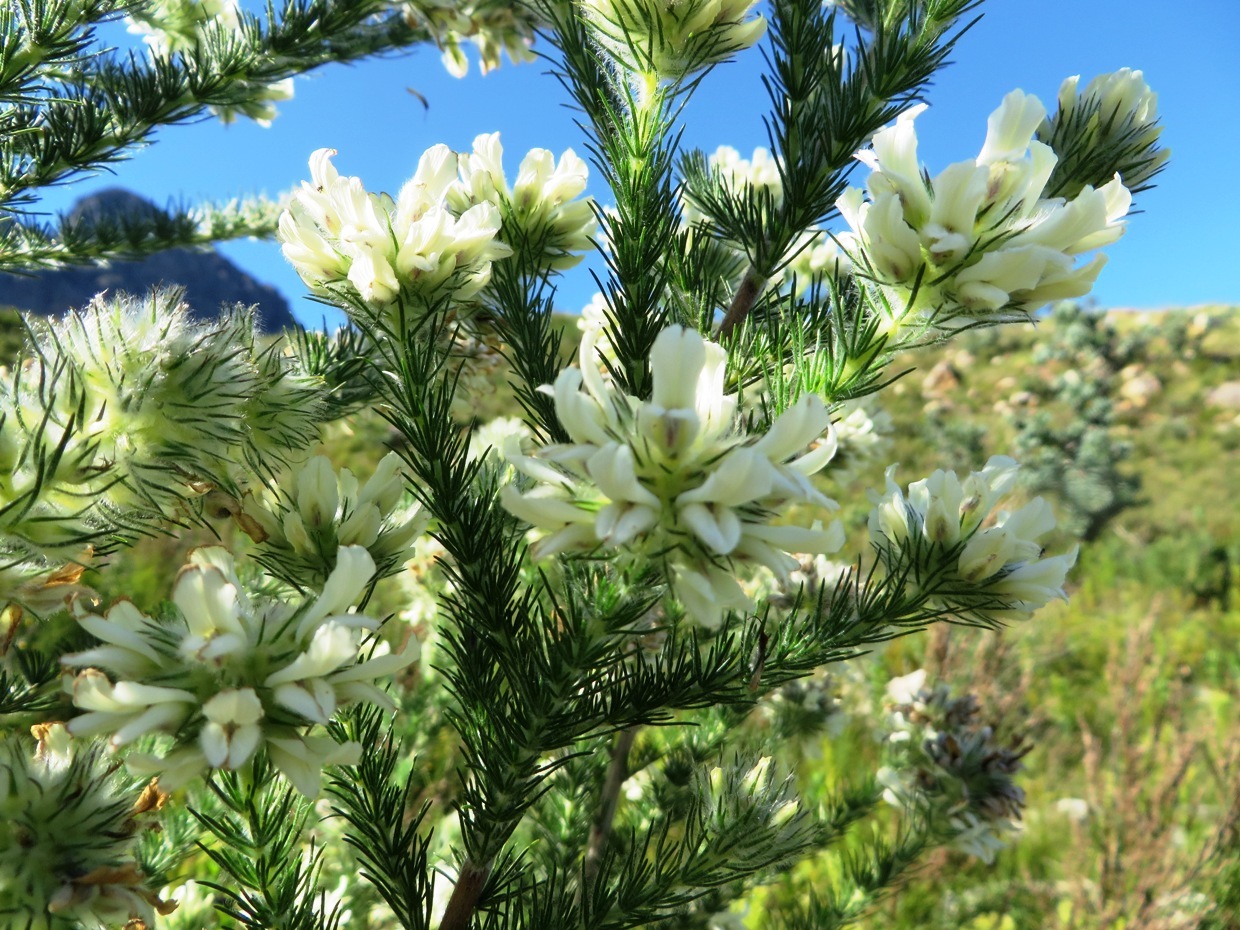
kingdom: Plantae
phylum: Tracheophyta
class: Magnoliopsida
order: Fabales
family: Fabaceae
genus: Aspalathus
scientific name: Aspalathus cephalotes
